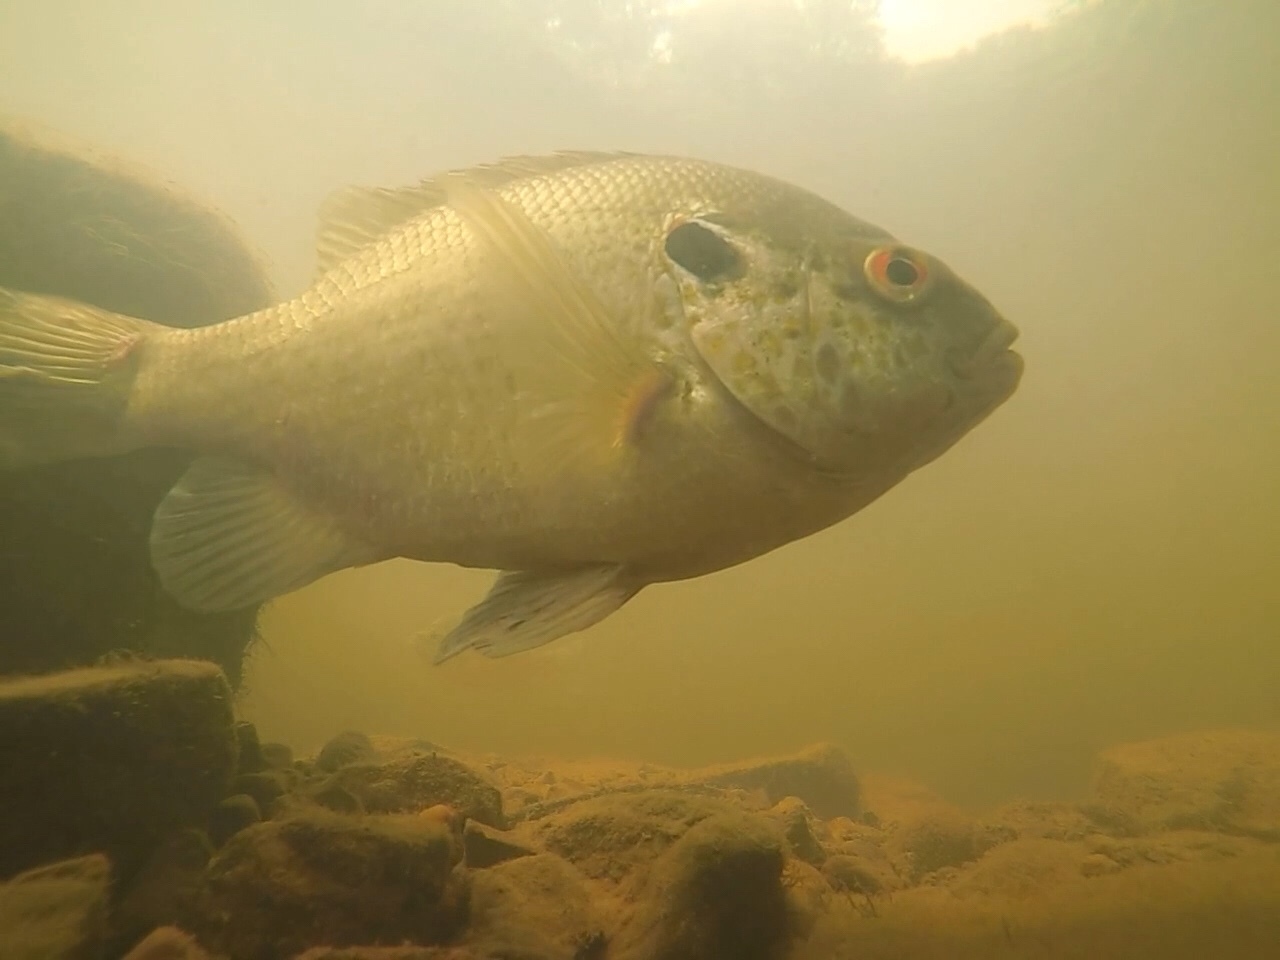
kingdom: Animalia
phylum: Chordata
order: Perciformes
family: Centrarchidae
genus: Lepomis
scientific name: Lepomis microlophus
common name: Redear sunfish
